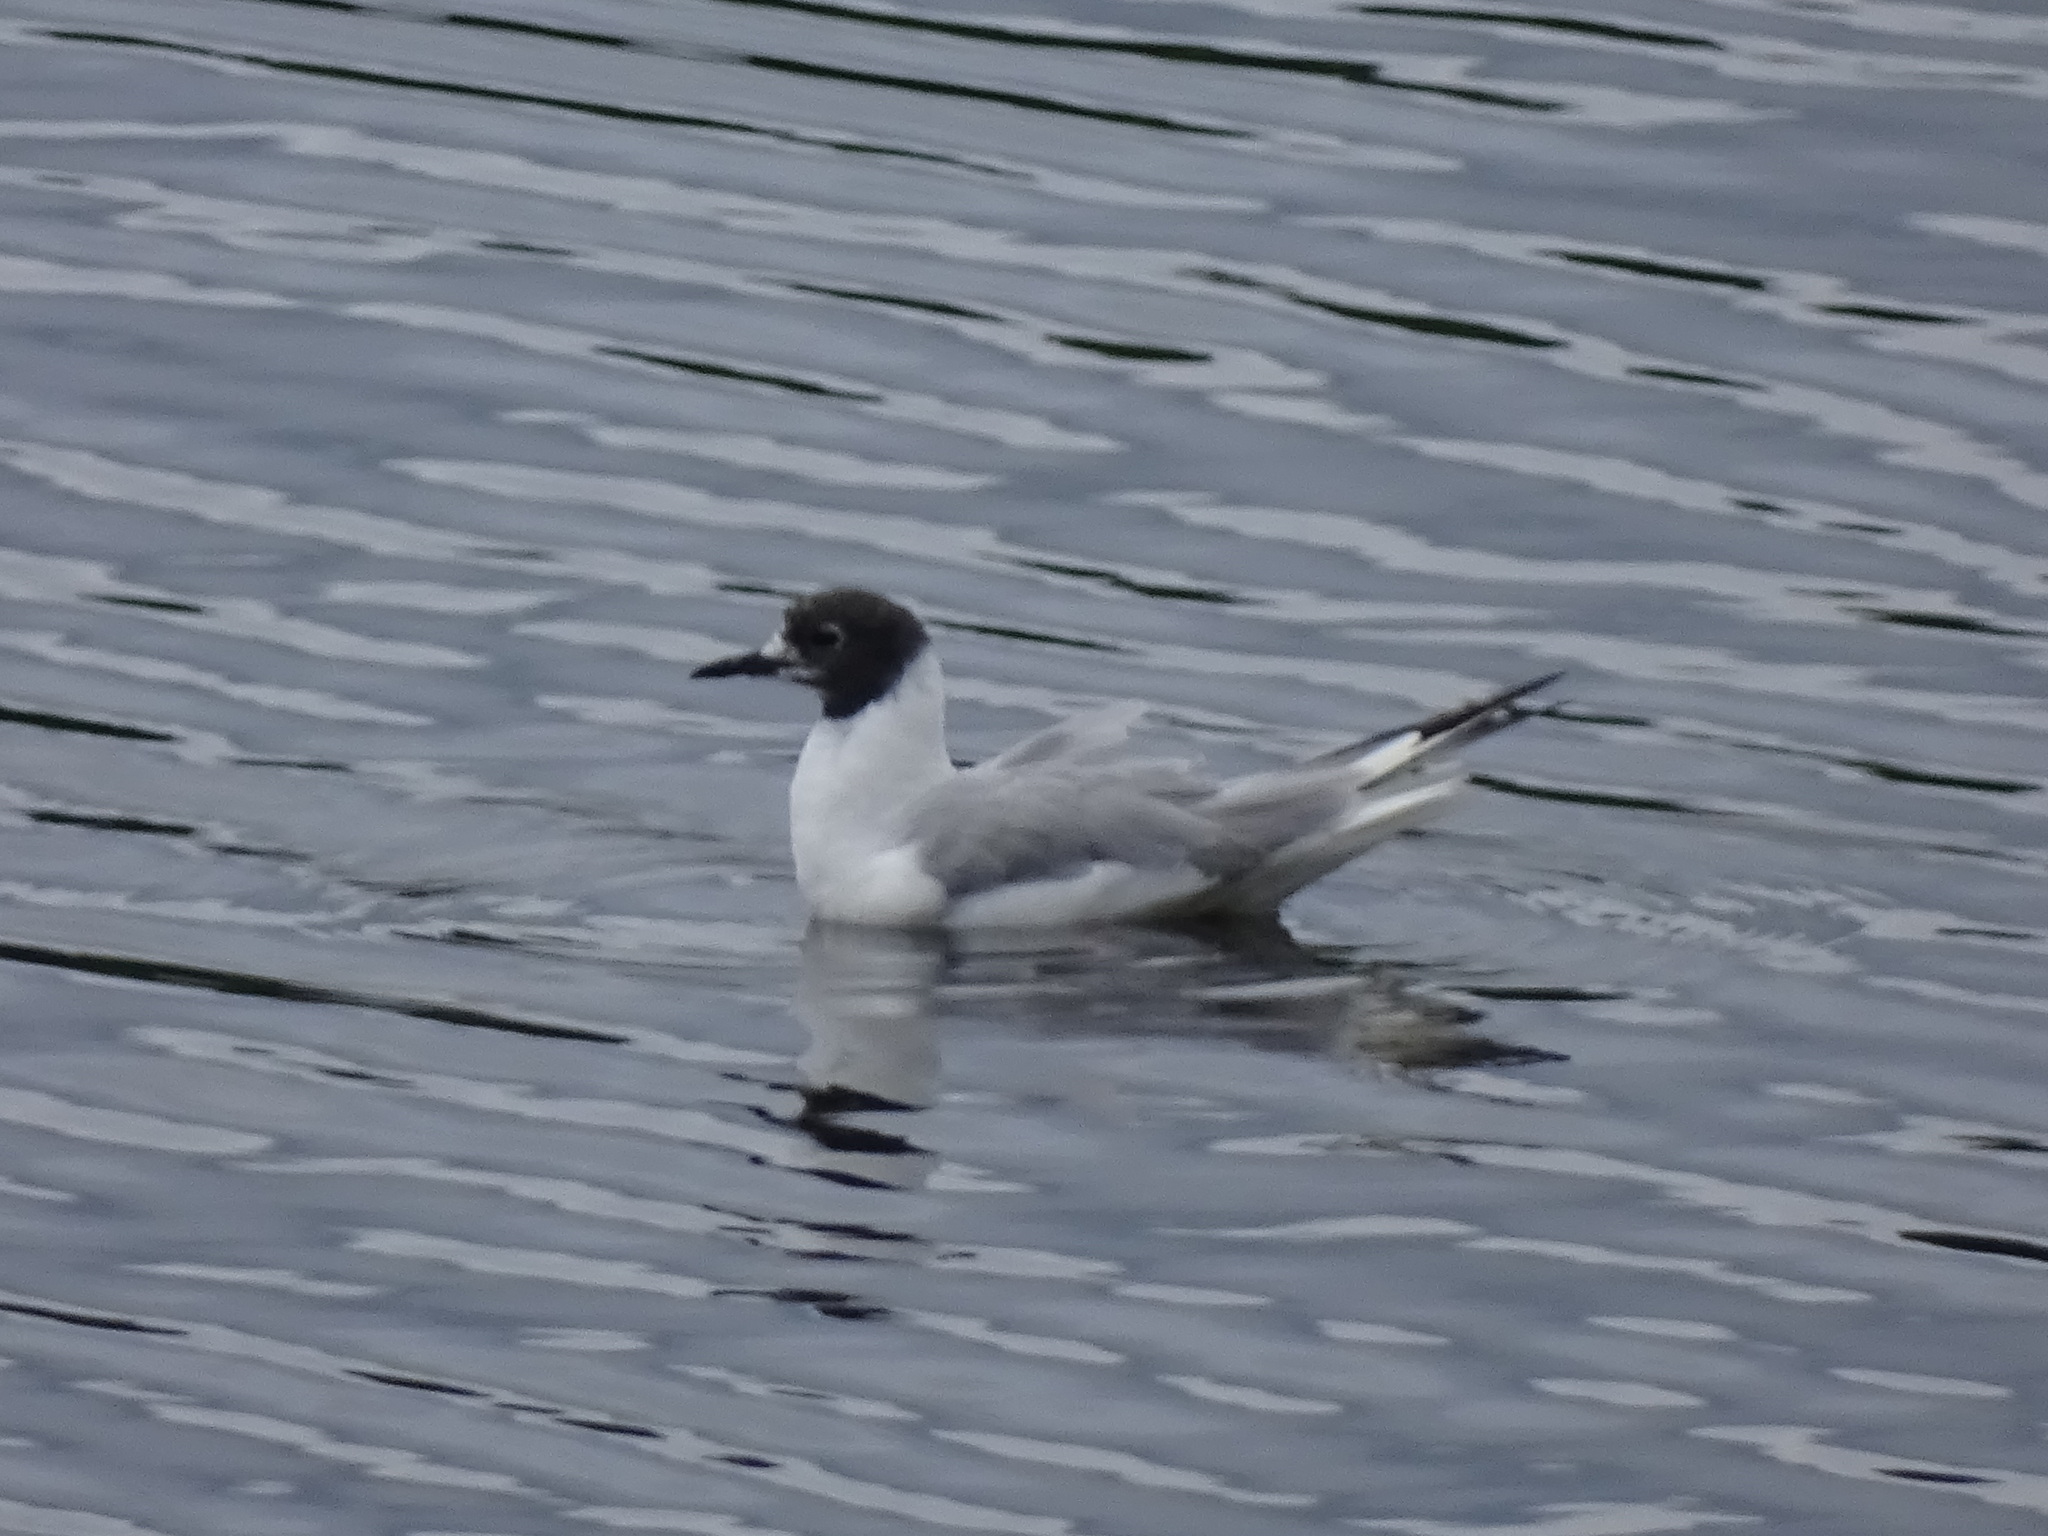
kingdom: Animalia
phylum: Chordata
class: Aves
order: Charadriiformes
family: Laridae
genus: Chroicocephalus
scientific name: Chroicocephalus philadelphia
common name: Bonaparte's gull
